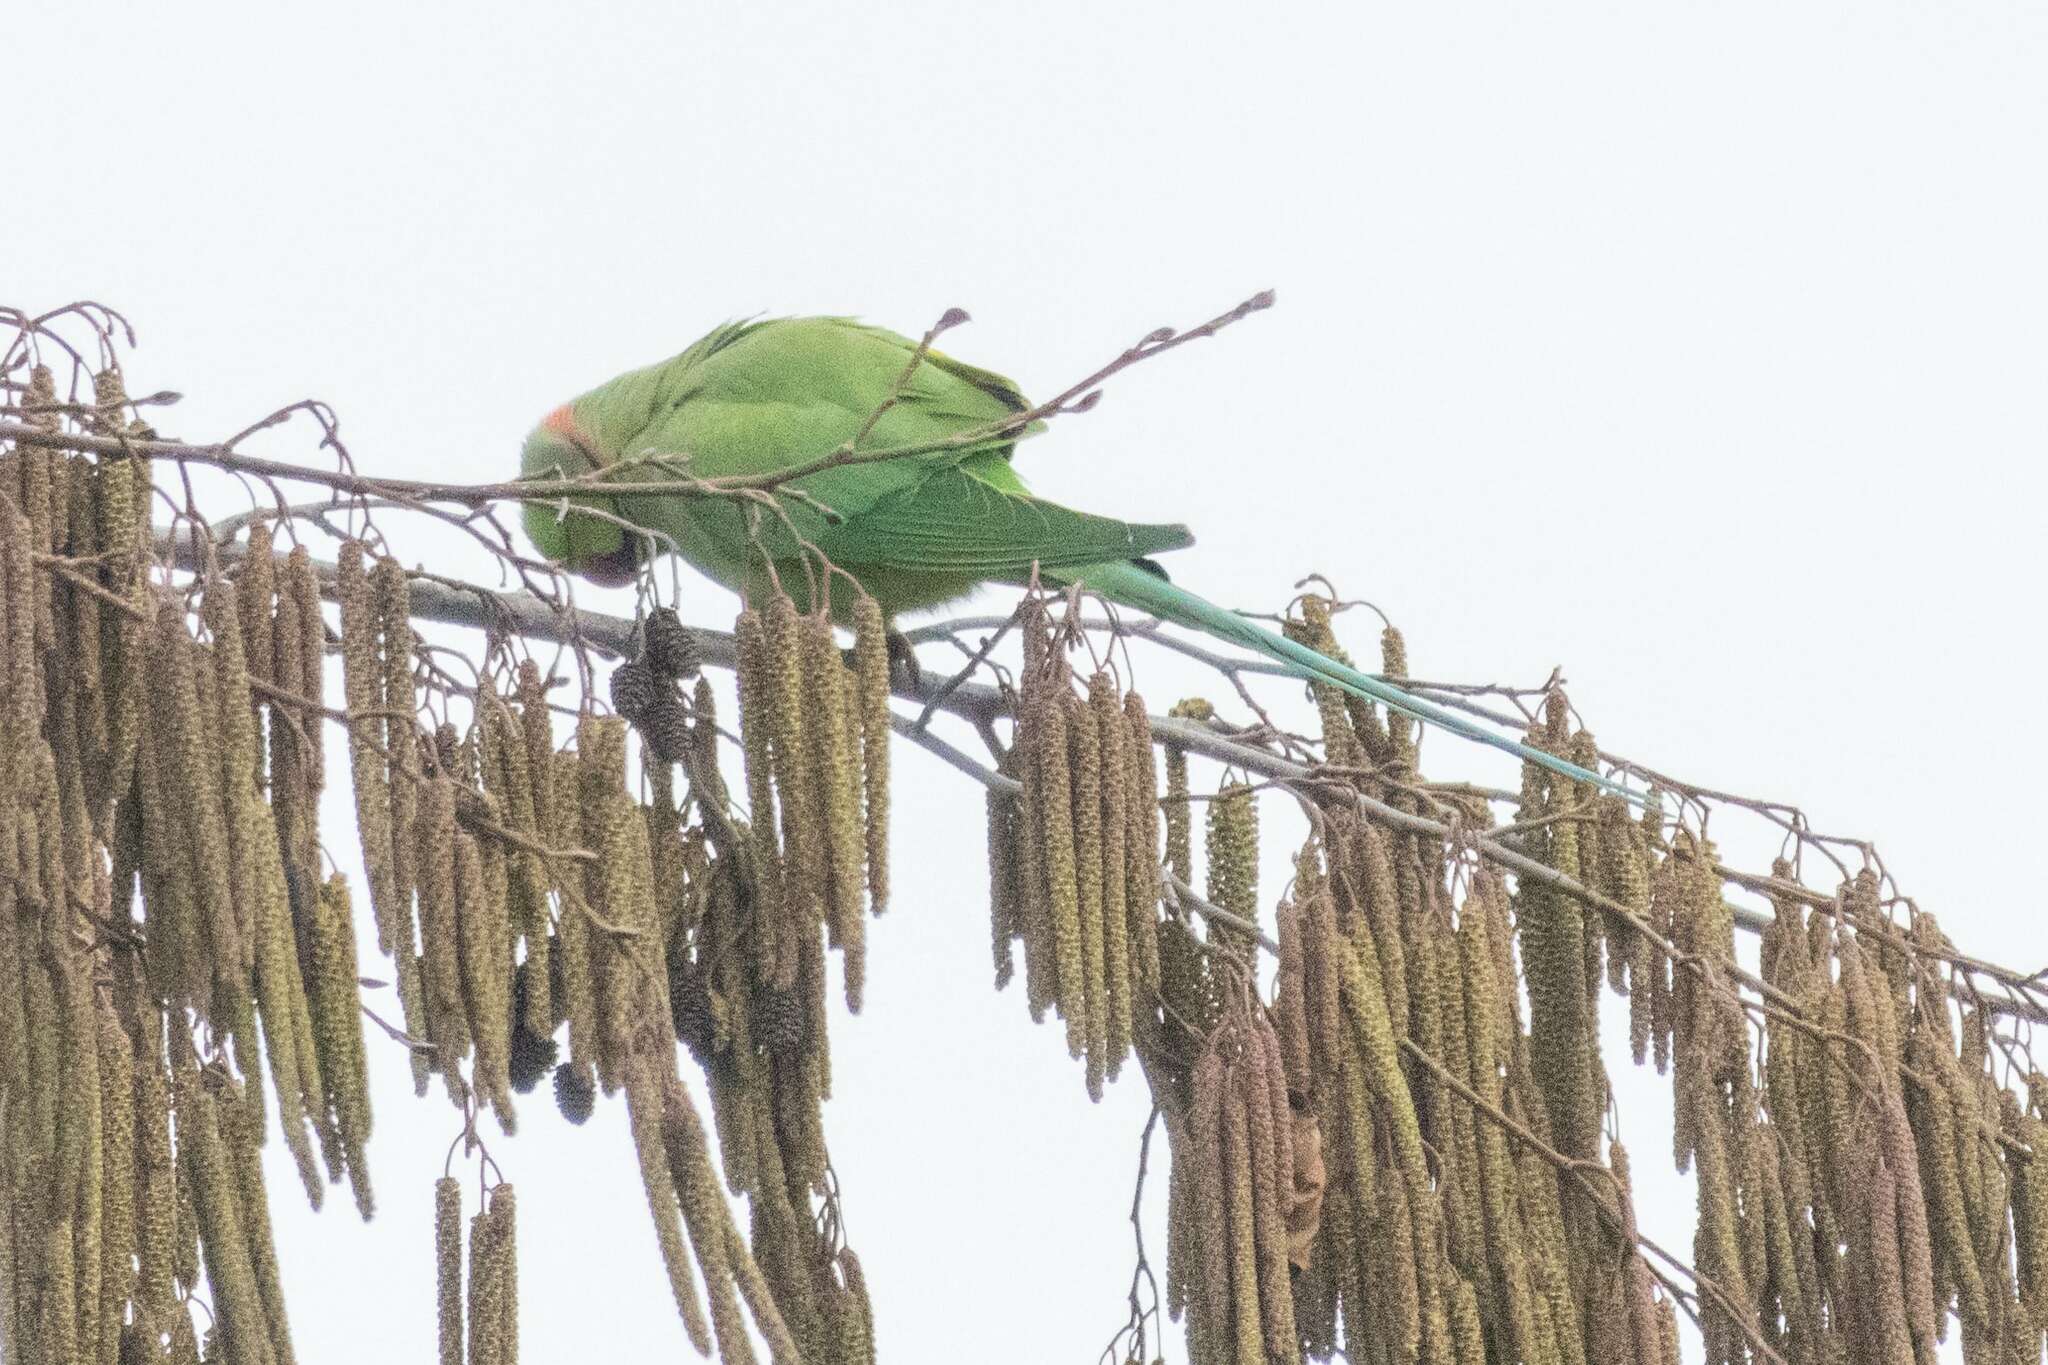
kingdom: Animalia
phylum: Chordata
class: Aves
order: Psittaciformes
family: Psittacidae
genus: Psittacula
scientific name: Psittacula krameri
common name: Rose-ringed parakeet
